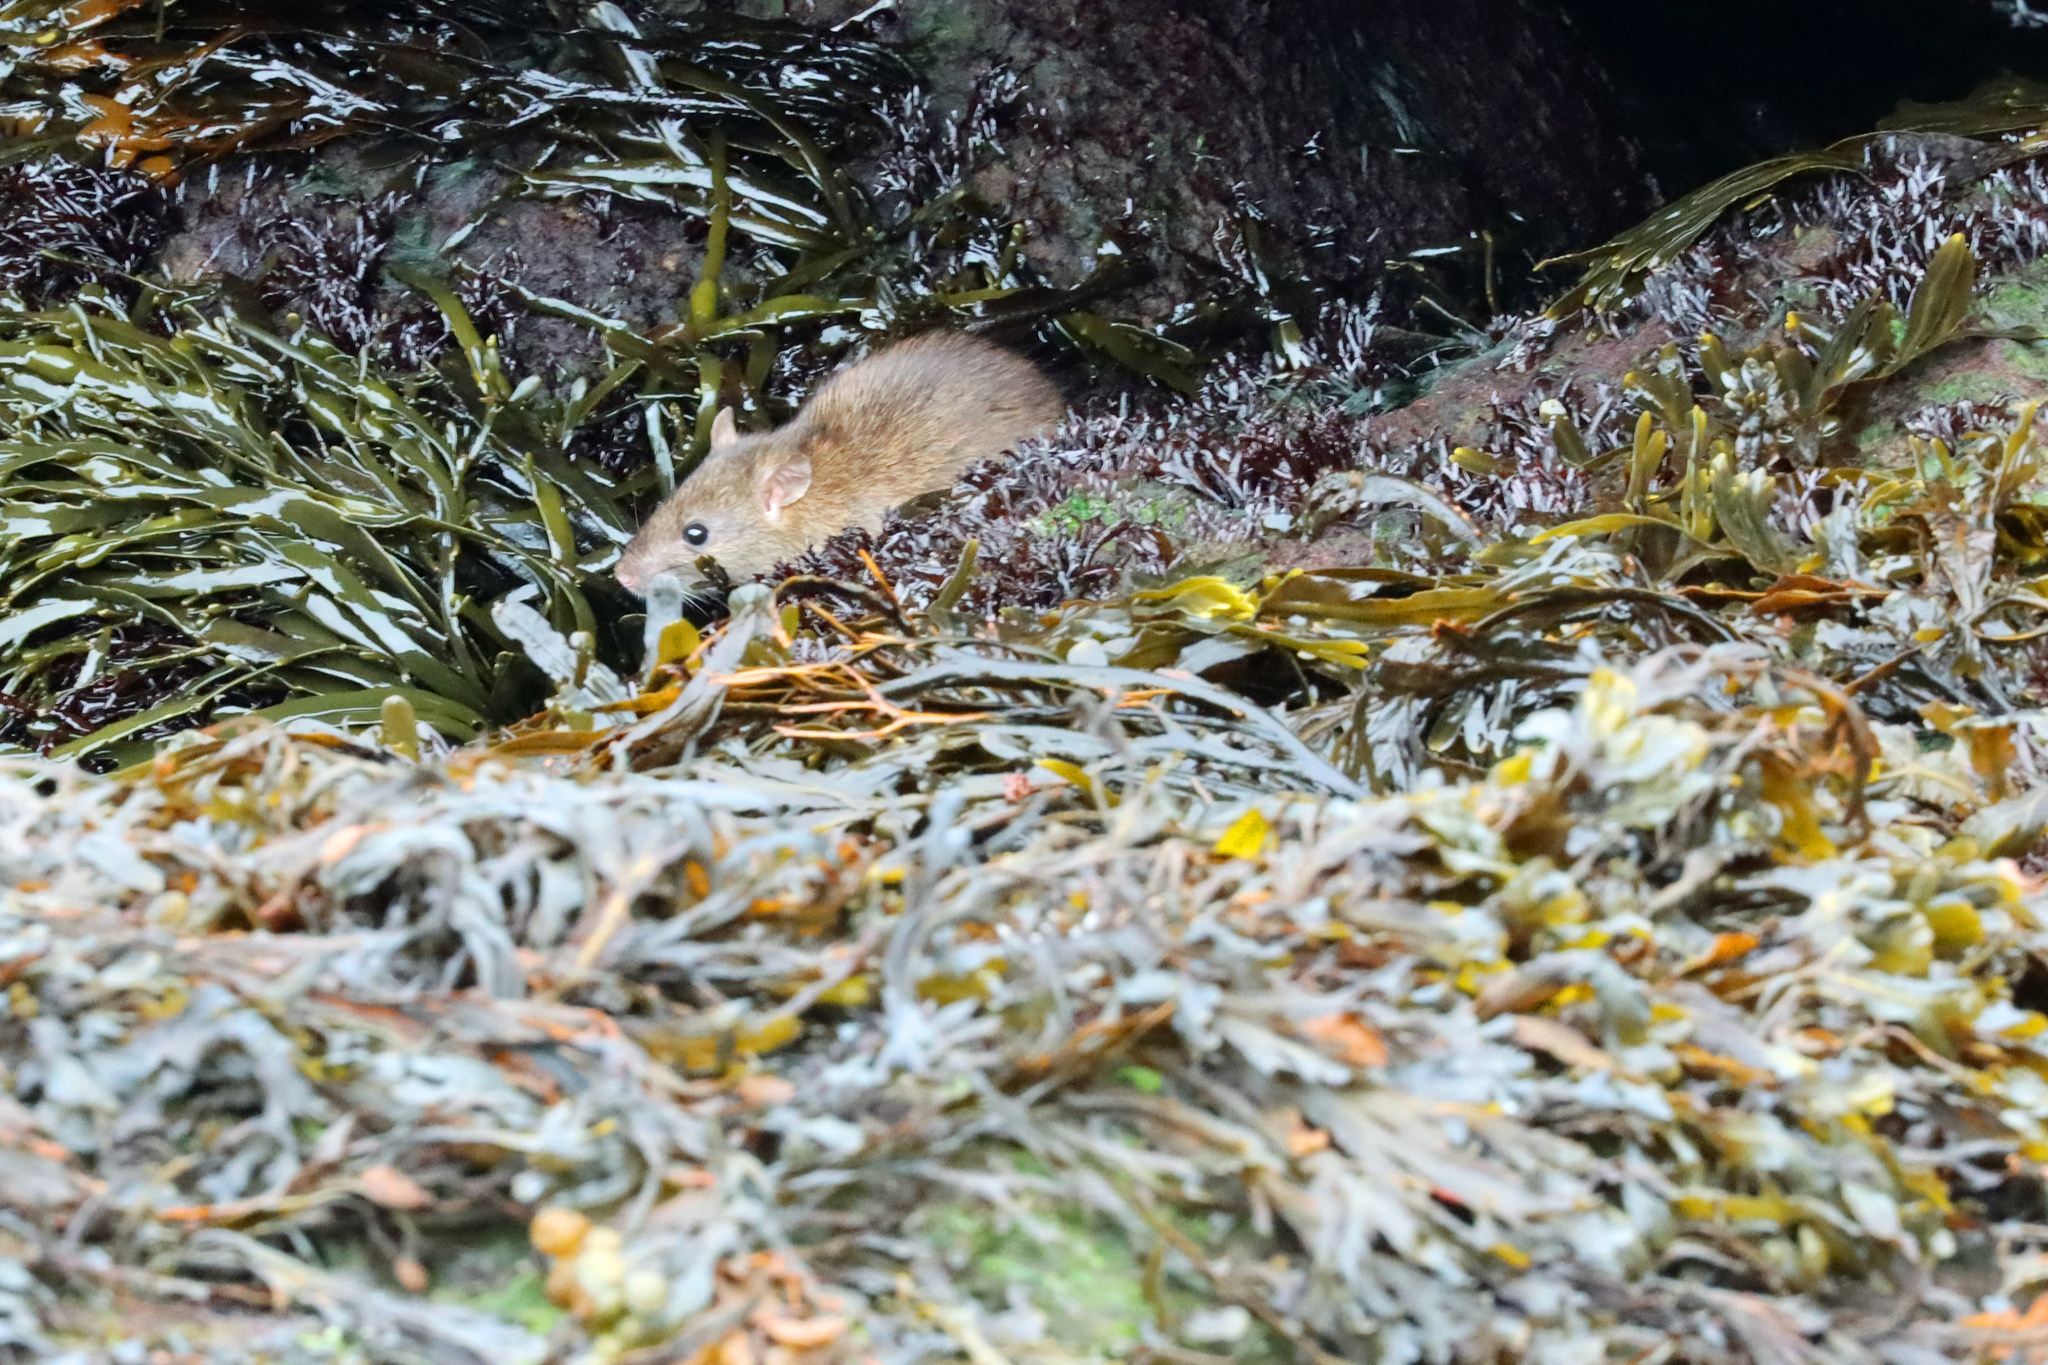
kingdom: Animalia
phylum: Chordata
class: Mammalia
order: Rodentia
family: Muridae
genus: Rattus
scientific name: Rattus norvegicus
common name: Brown rat
